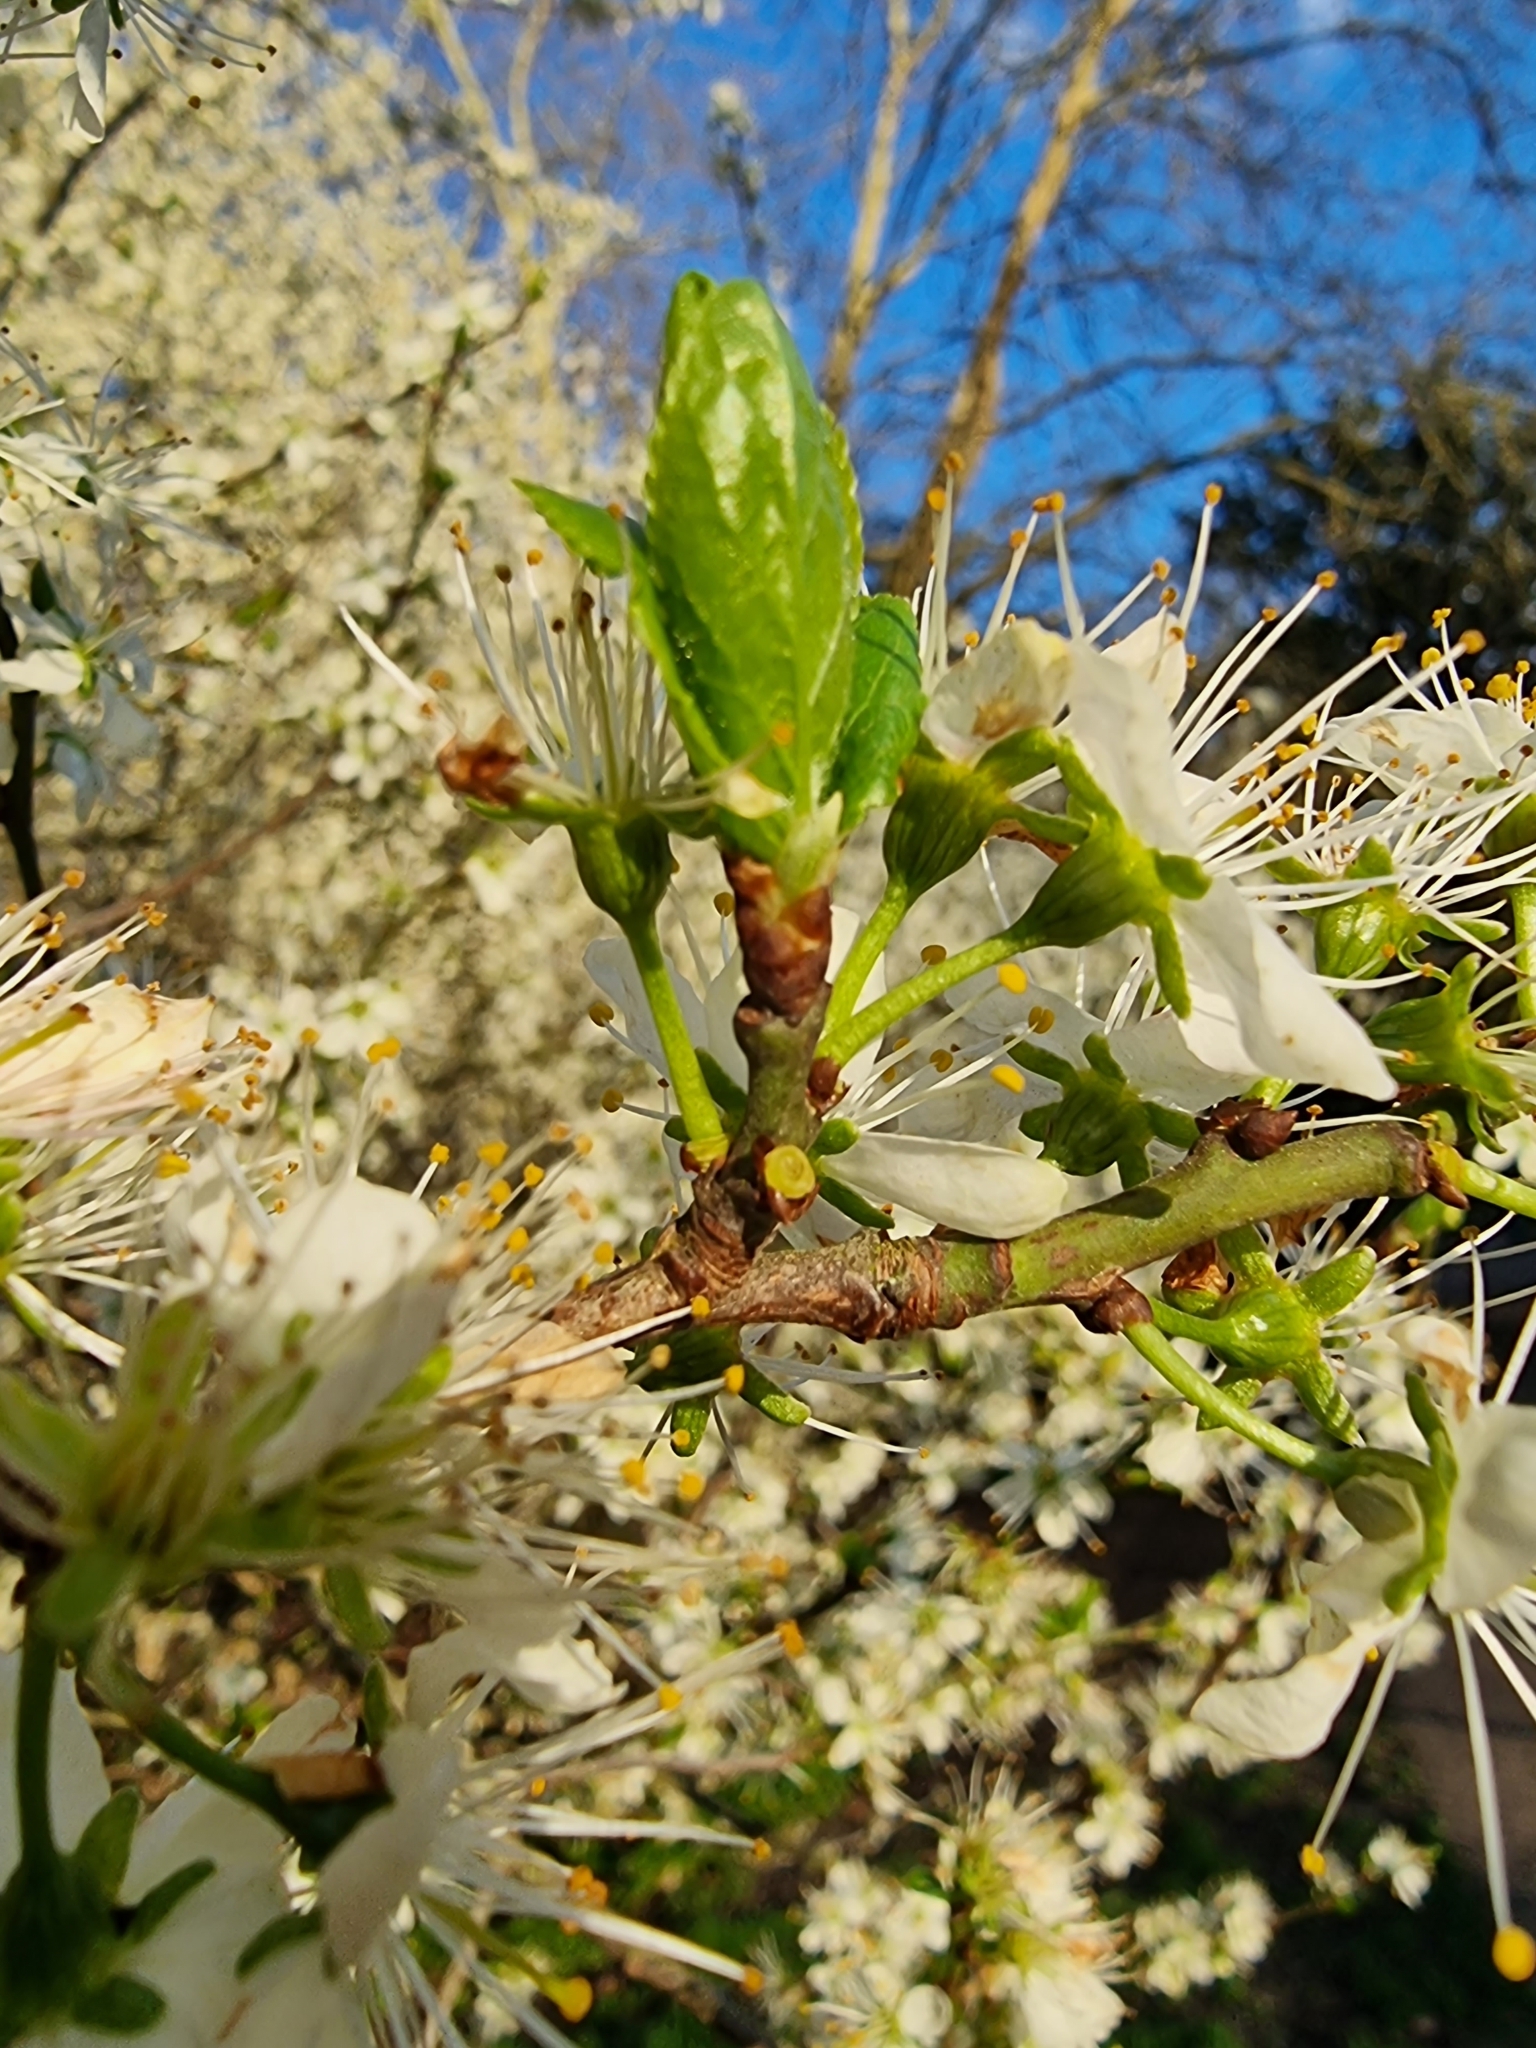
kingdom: Plantae
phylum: Tracheophyta
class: Magnoliopsida
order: Rosales
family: Rosaceae
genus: Prunus
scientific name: Prunus spinosa
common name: Blackthorn
